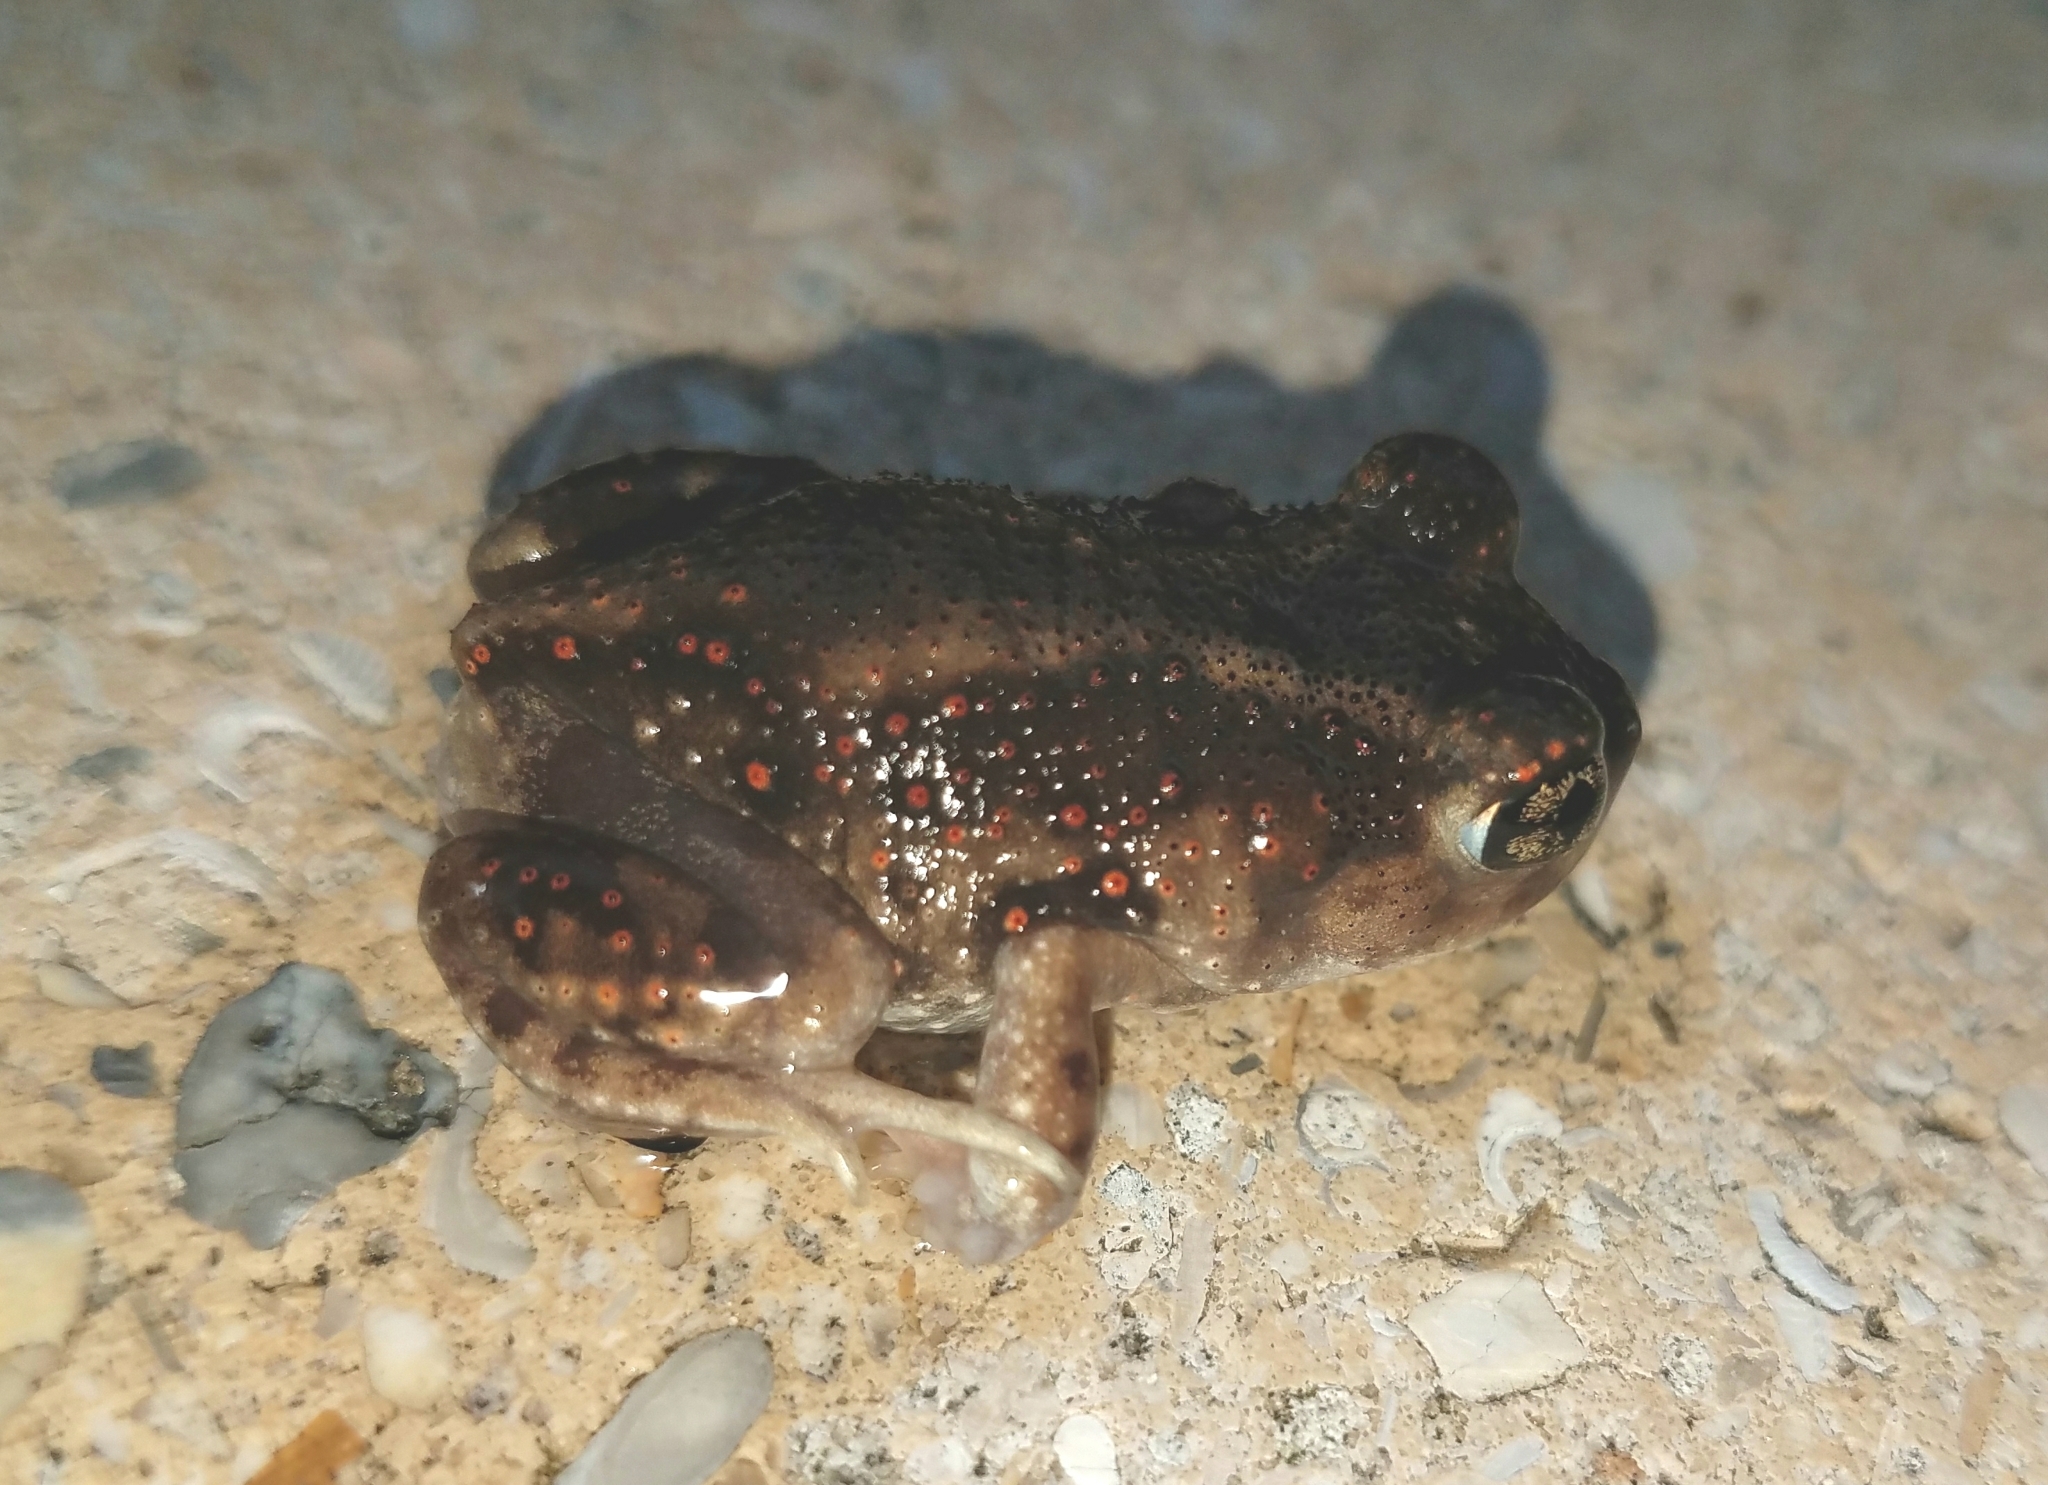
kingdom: Animalia
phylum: Chordata
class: Amphibia
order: Anura
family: Scaphiopodidae
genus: Scaphiopus
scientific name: Scaphiopus holbrookii
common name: Eastern spadefoot toad
